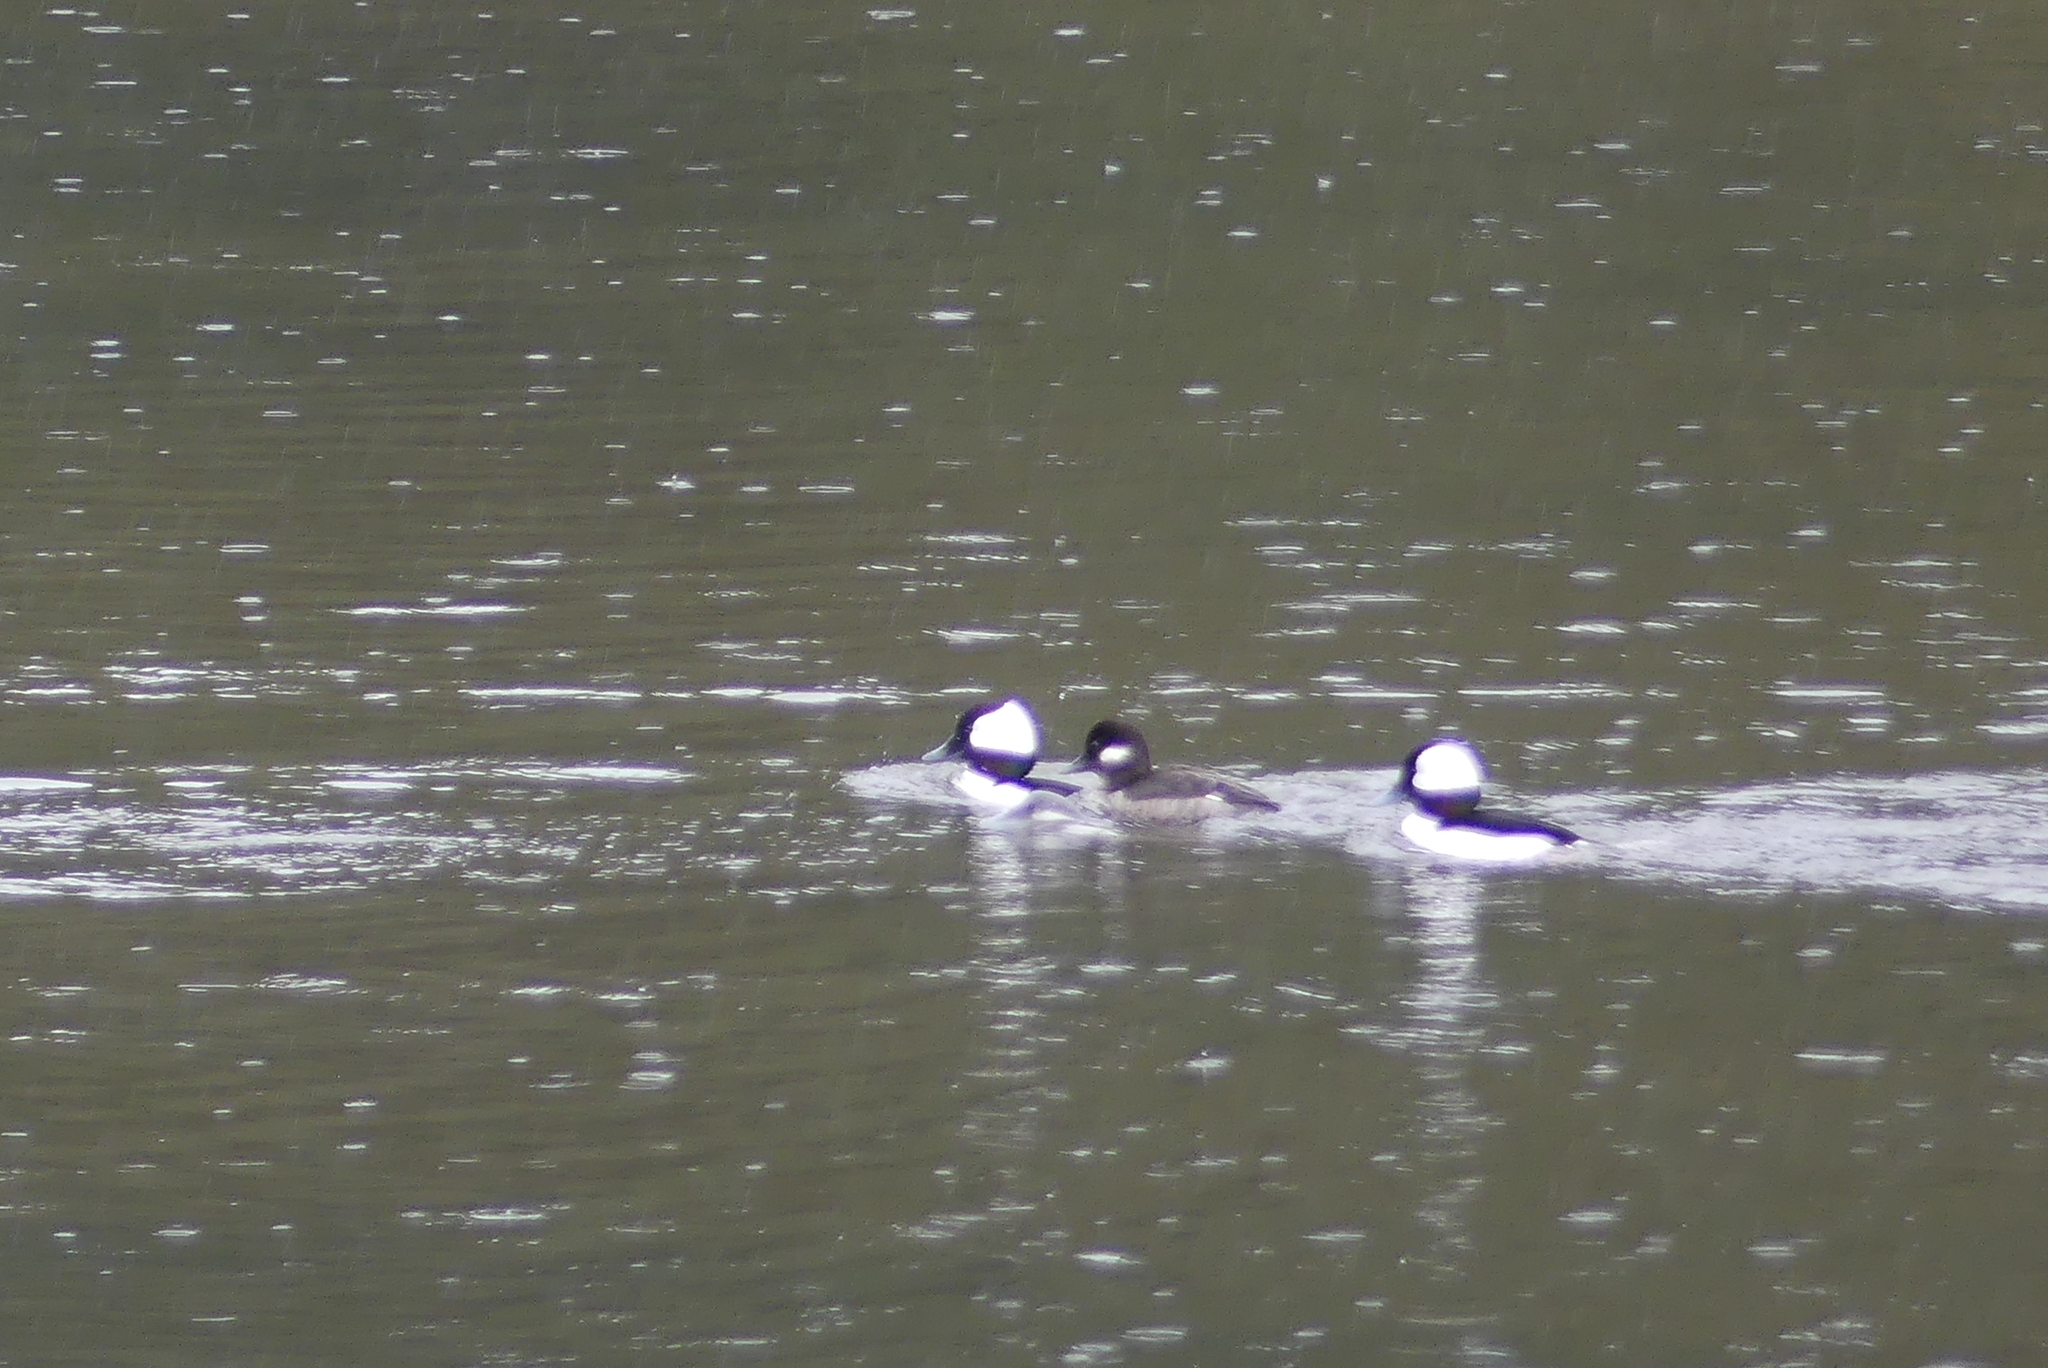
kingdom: Animalia
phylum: Chordata
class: Aves
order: Anseriformes
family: Anatidae
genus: Bucephala
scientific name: Bucephala albeola
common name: Bufflehead
